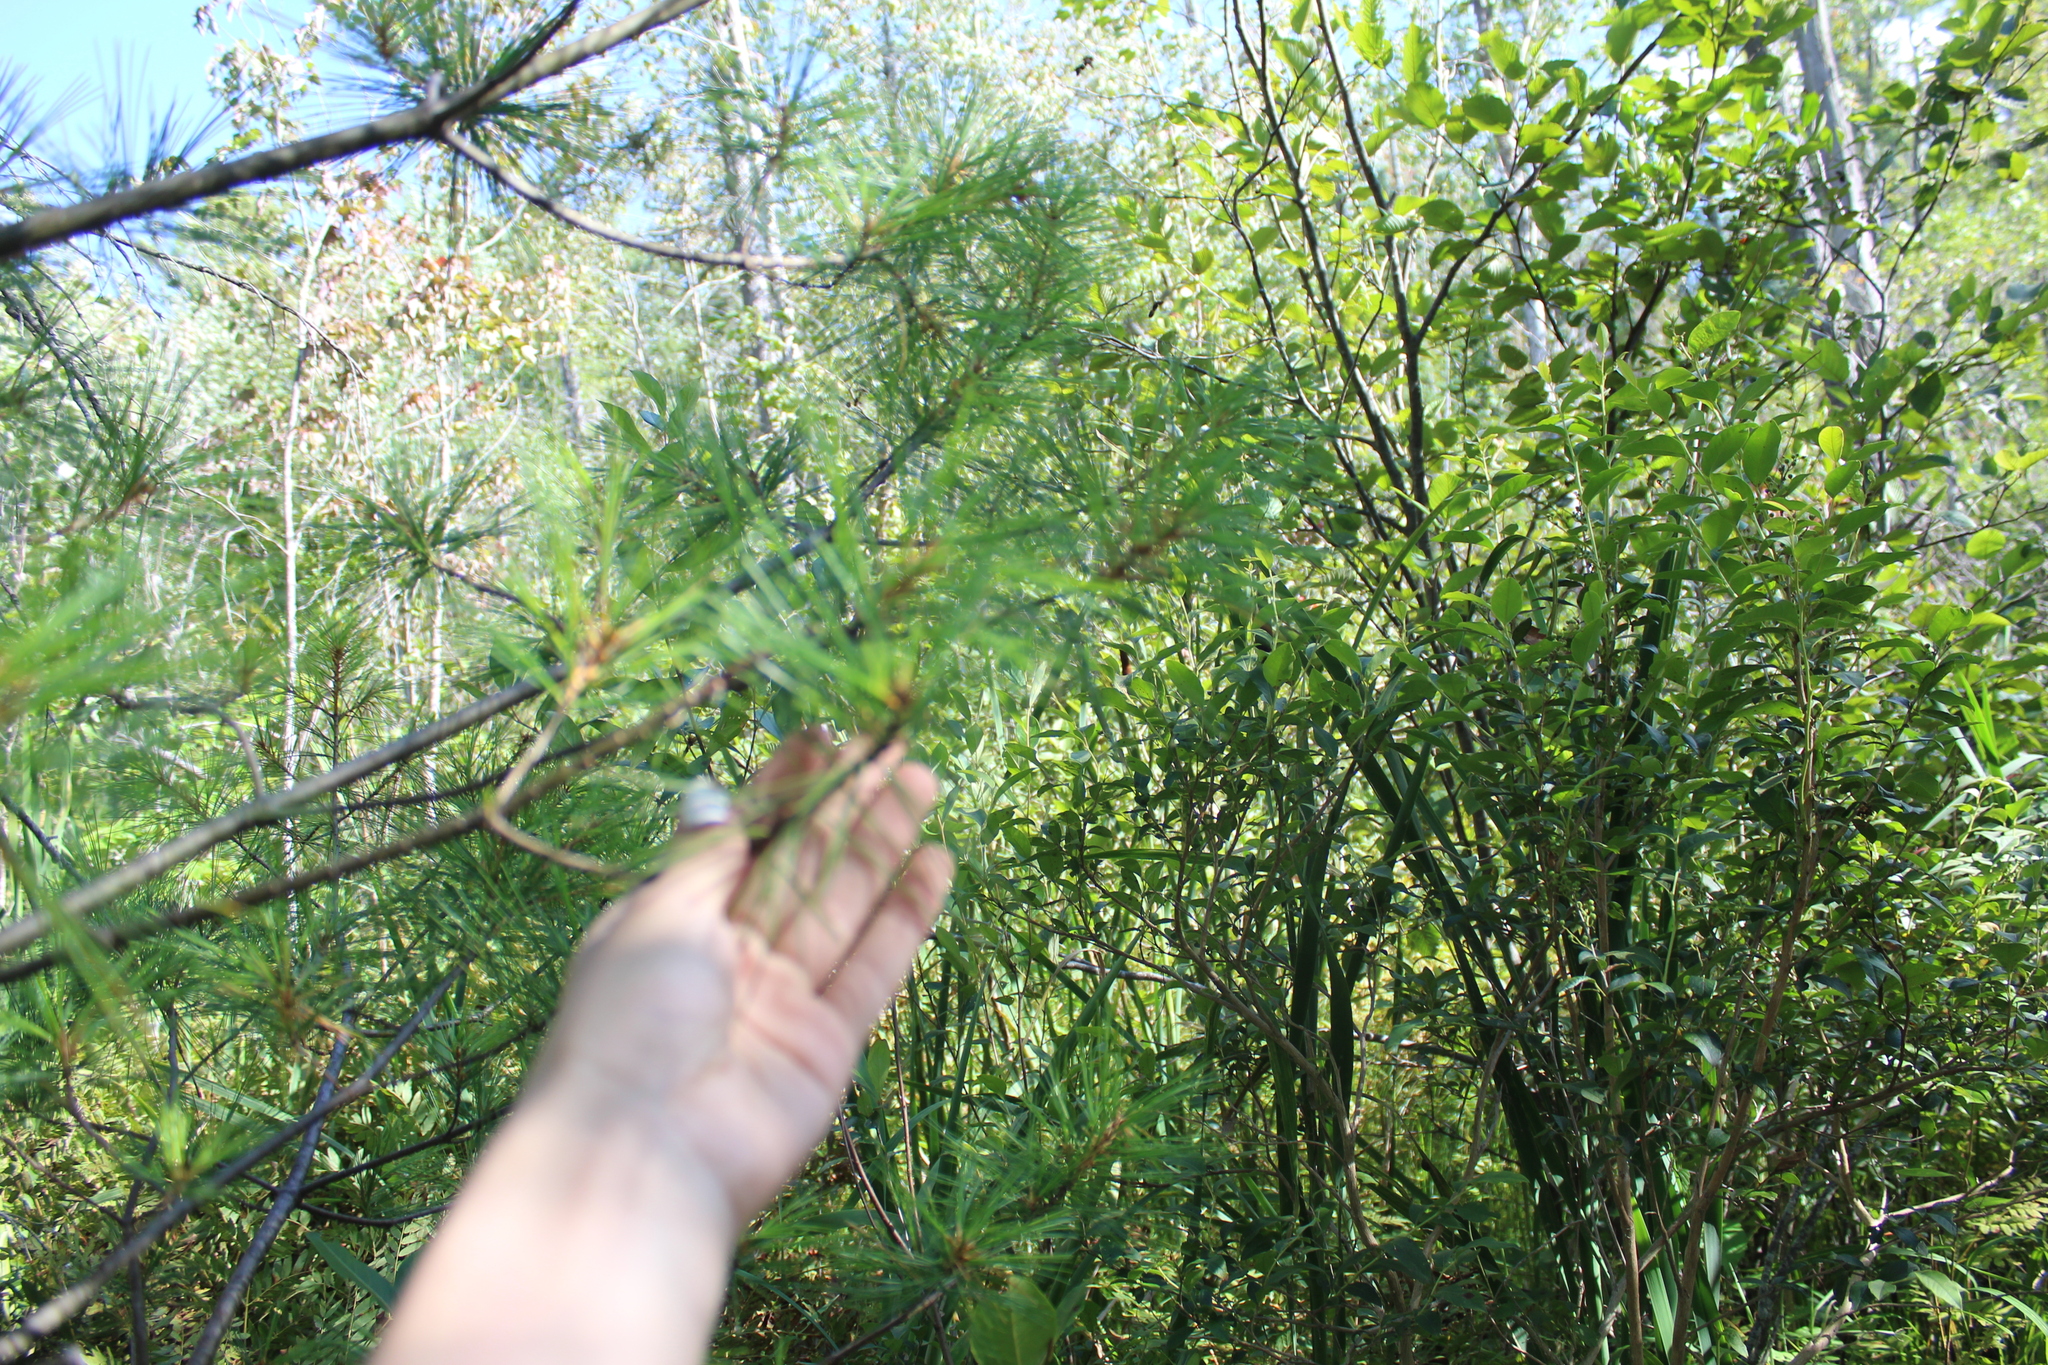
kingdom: Plantae
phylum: Tracheophyta
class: Pinopsida
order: Pinales
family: Pinaceae
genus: Pinus
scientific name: Pinus strobus
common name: Weymouth pine
